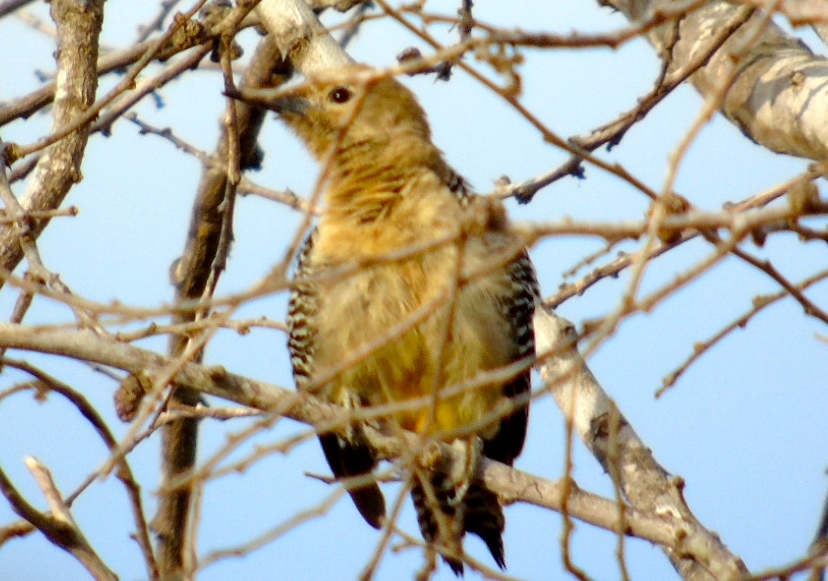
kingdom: Animalia
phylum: Chordata
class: Aves
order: Piciformes
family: Picidae
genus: Melanerpes
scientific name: Melanerpes uropygialis
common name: Gila woodpecker
